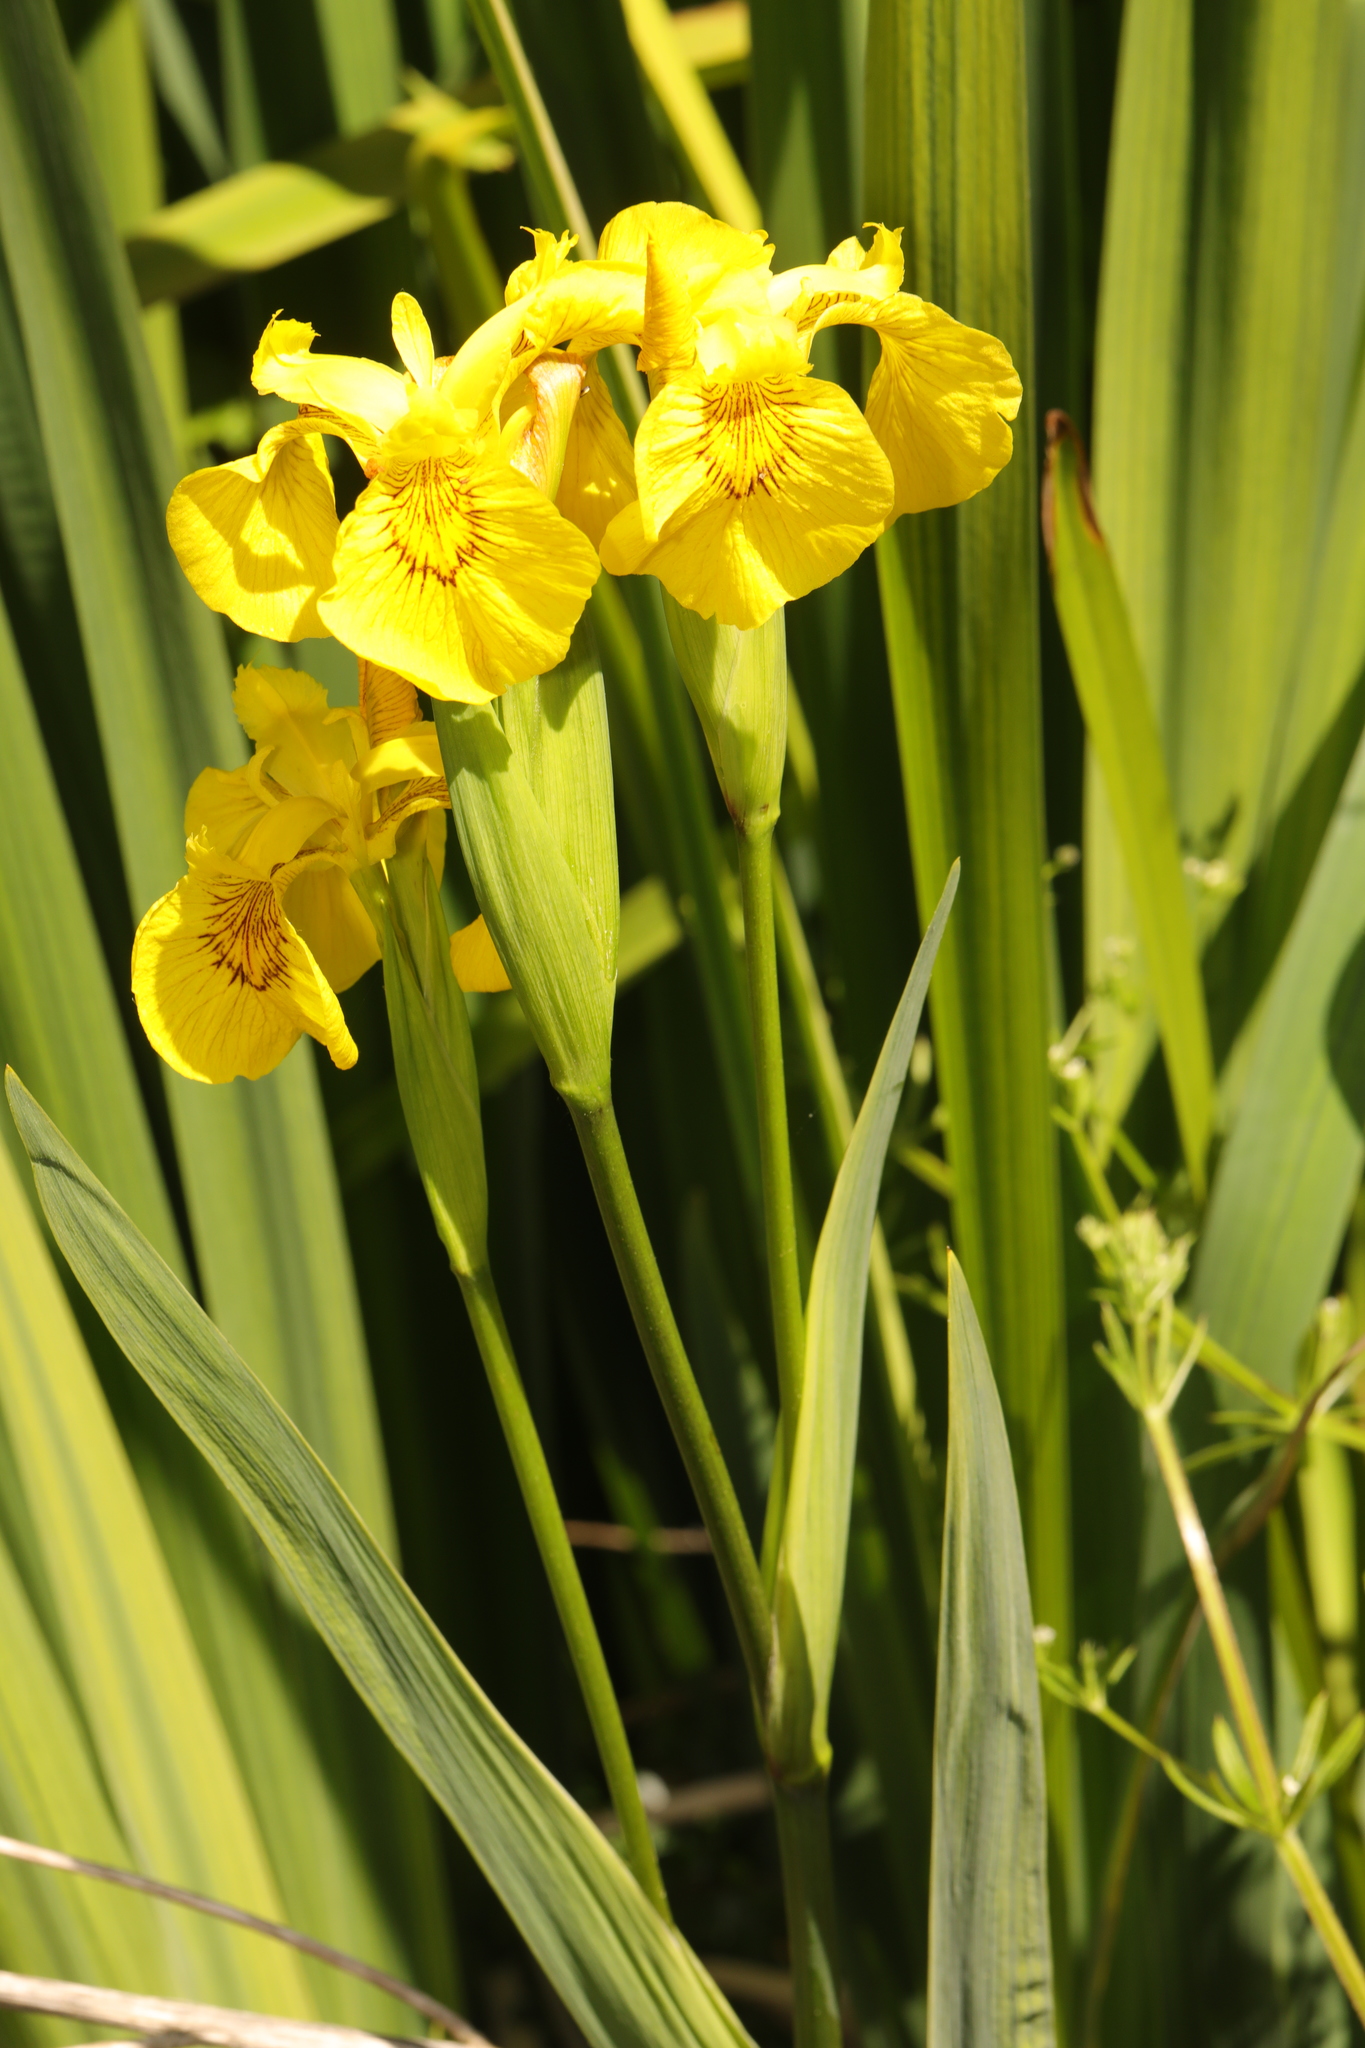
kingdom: Plantae
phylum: Tracheophyta
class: Liliopsida
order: Asparagales
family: Iridaceae
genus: Iris
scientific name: Iris pseudacorus
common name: Yellow flag
